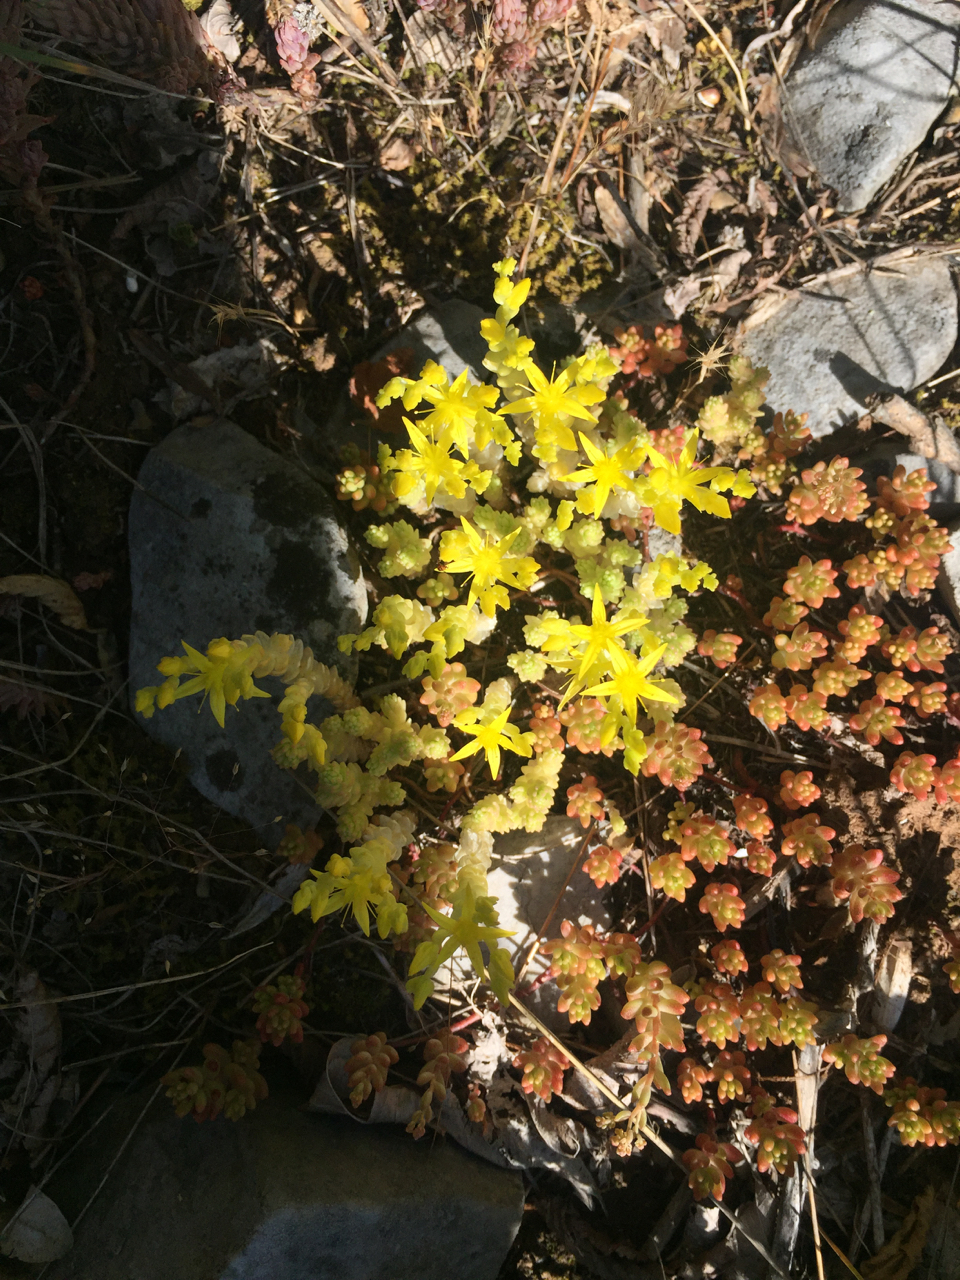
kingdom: Plantae
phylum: Tracheophyta
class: Magnoliopsida
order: Saxifragales
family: Crassulaceae
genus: Sedum
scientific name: Sedum acre
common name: Biting stonecrop
